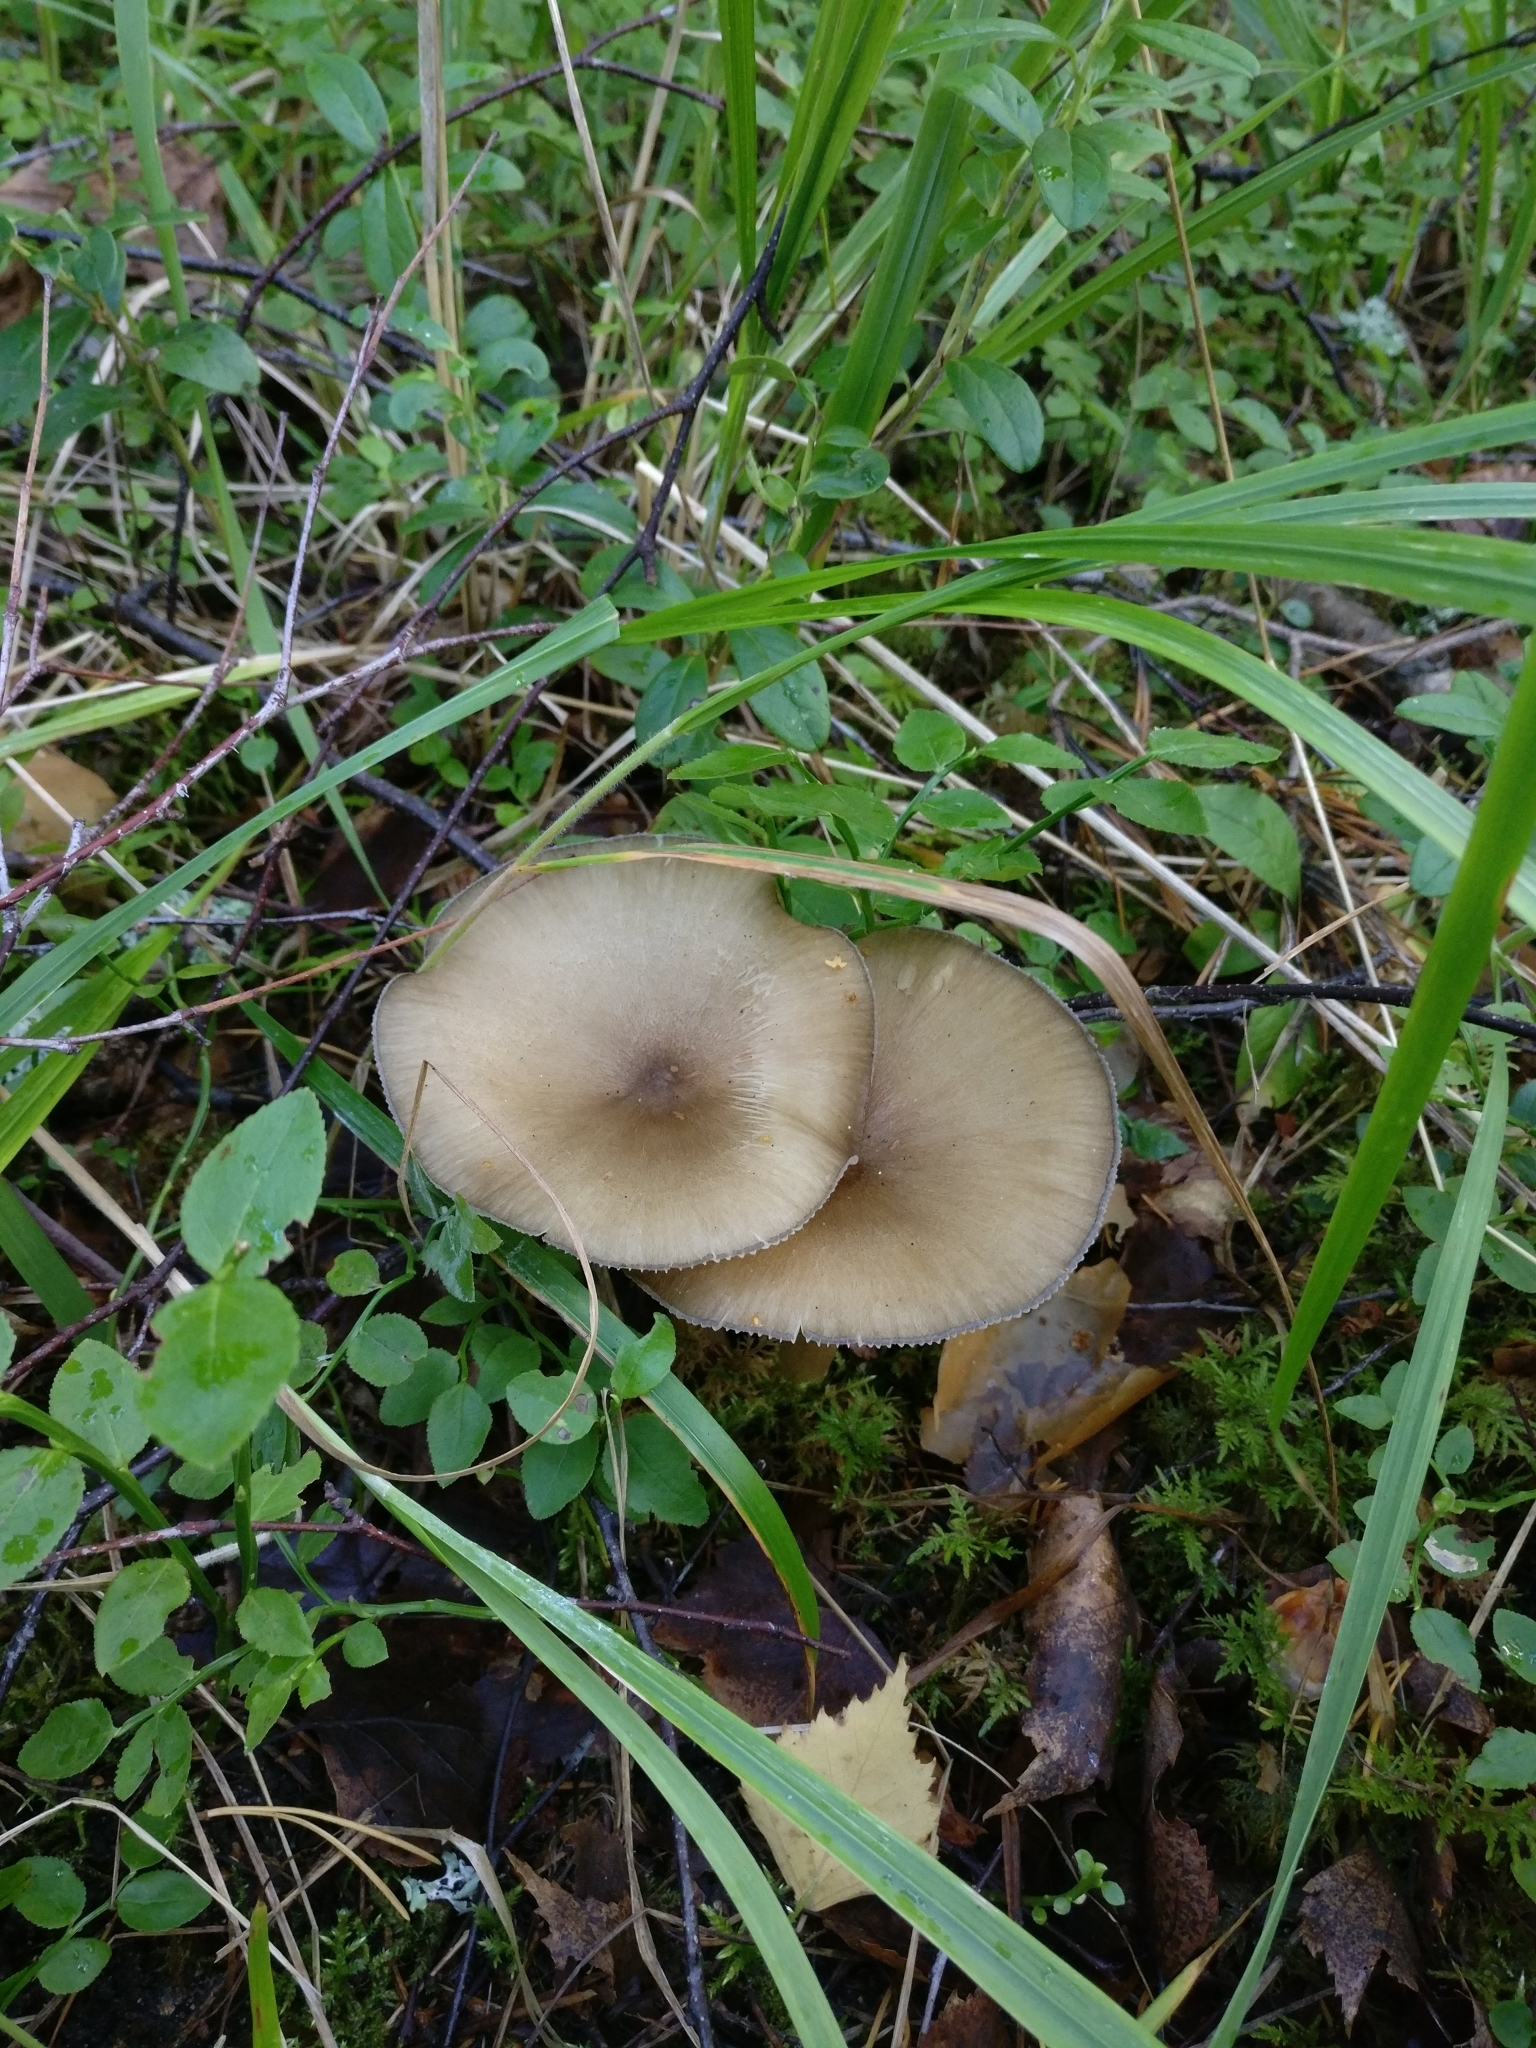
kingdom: Fungi
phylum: Basidiomycota
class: Agaricomycetes
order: Agaricales
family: Tricholomataceae
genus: Megacollybia
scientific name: Megacollybia platyphylla
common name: Whitelaced shank
